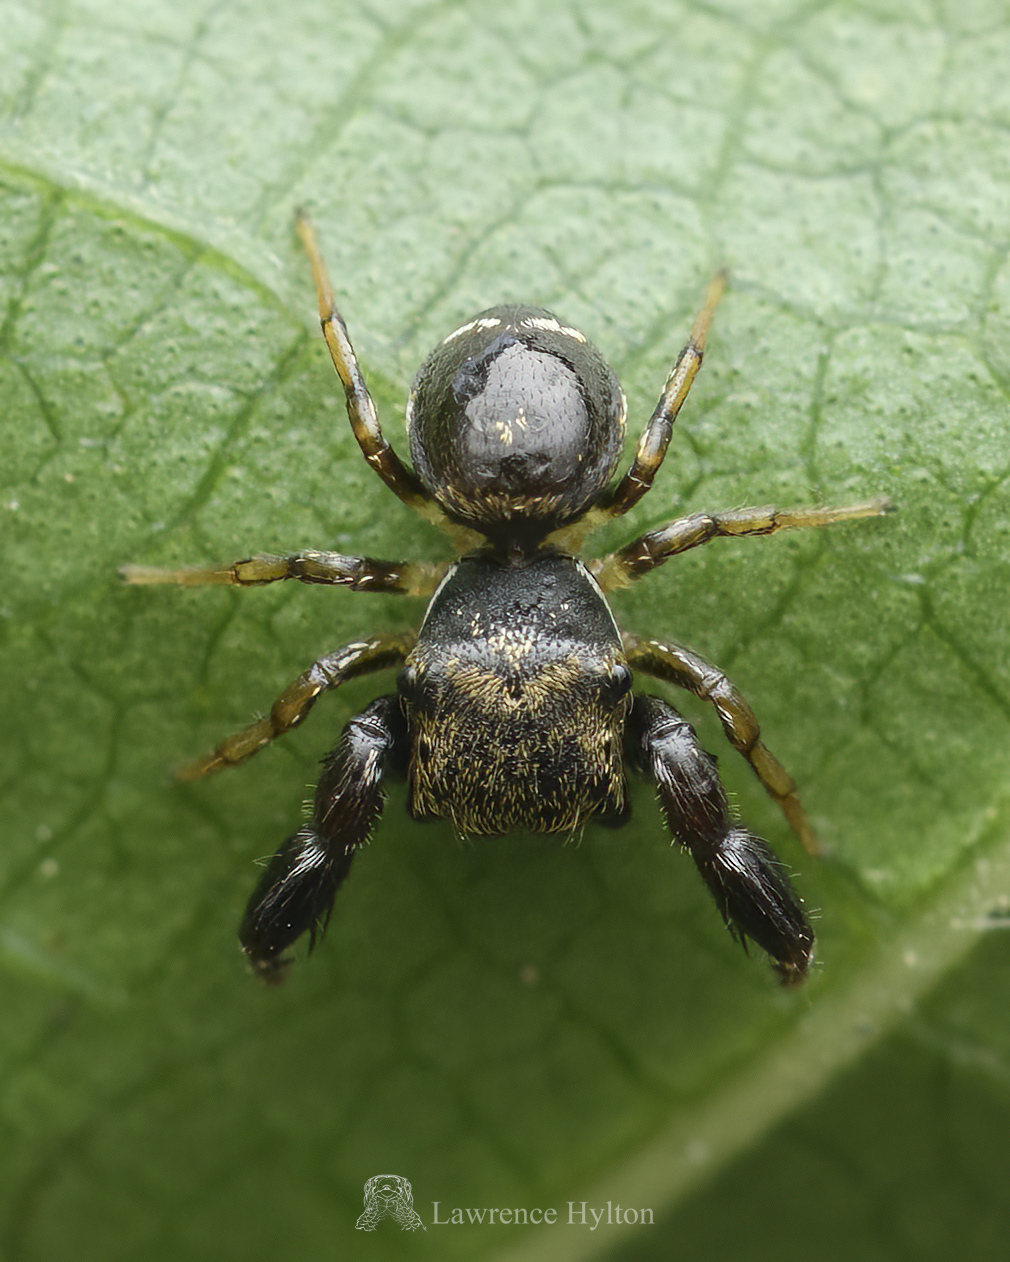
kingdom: Animalia
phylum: Arthropoda
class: Arachnida
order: Araneae
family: Salticidae
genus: Harmochirus
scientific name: Harmochirus insulanus
